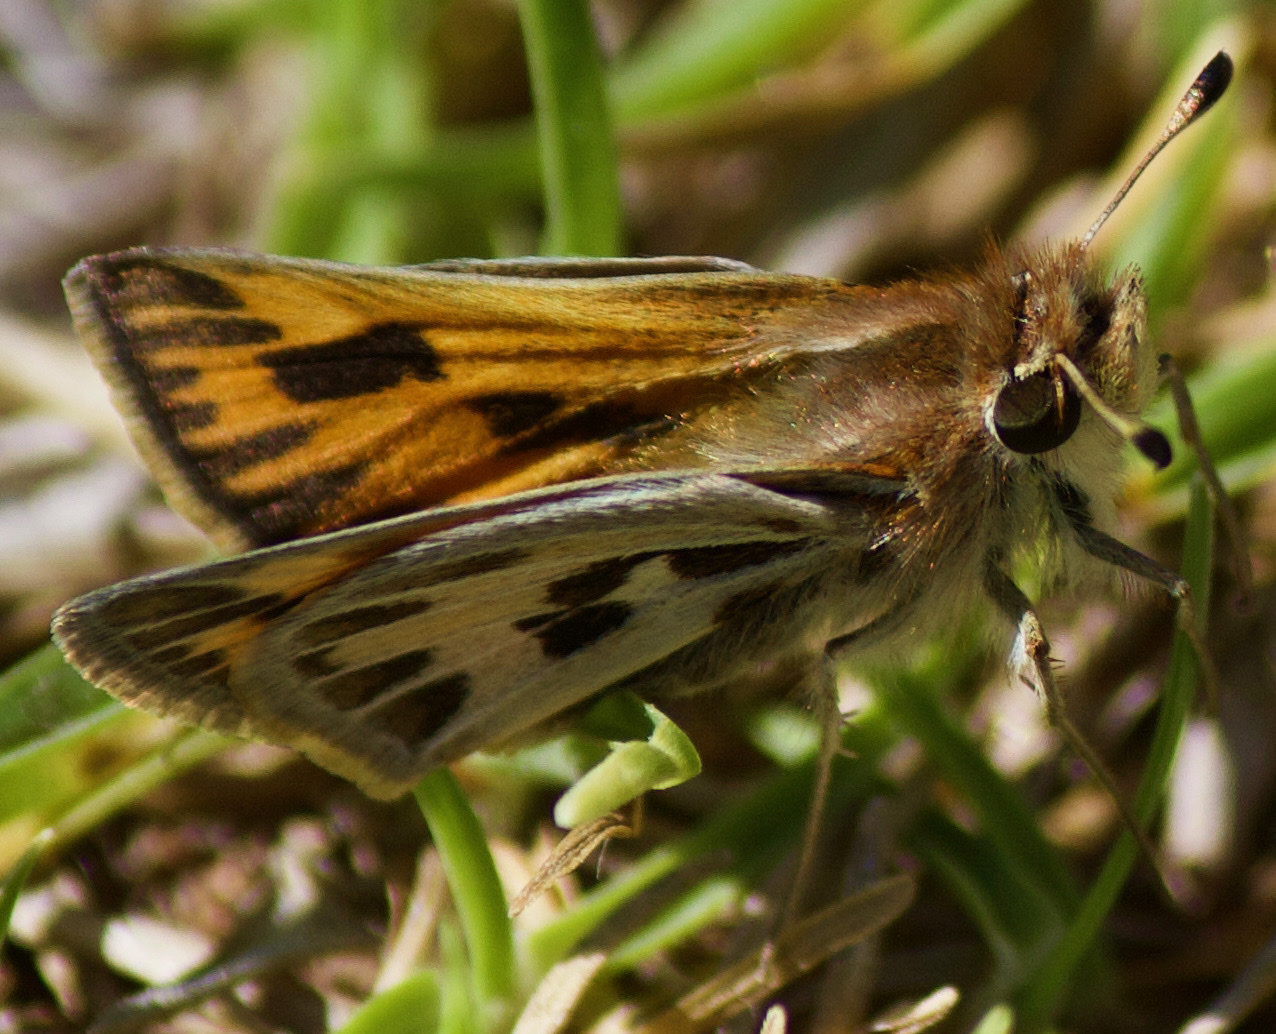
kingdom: Animalia
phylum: Arthropoda
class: Insecta
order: Lepidoptera
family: Hesperiidae
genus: Hylephila
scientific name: Hylephila fasciolata
